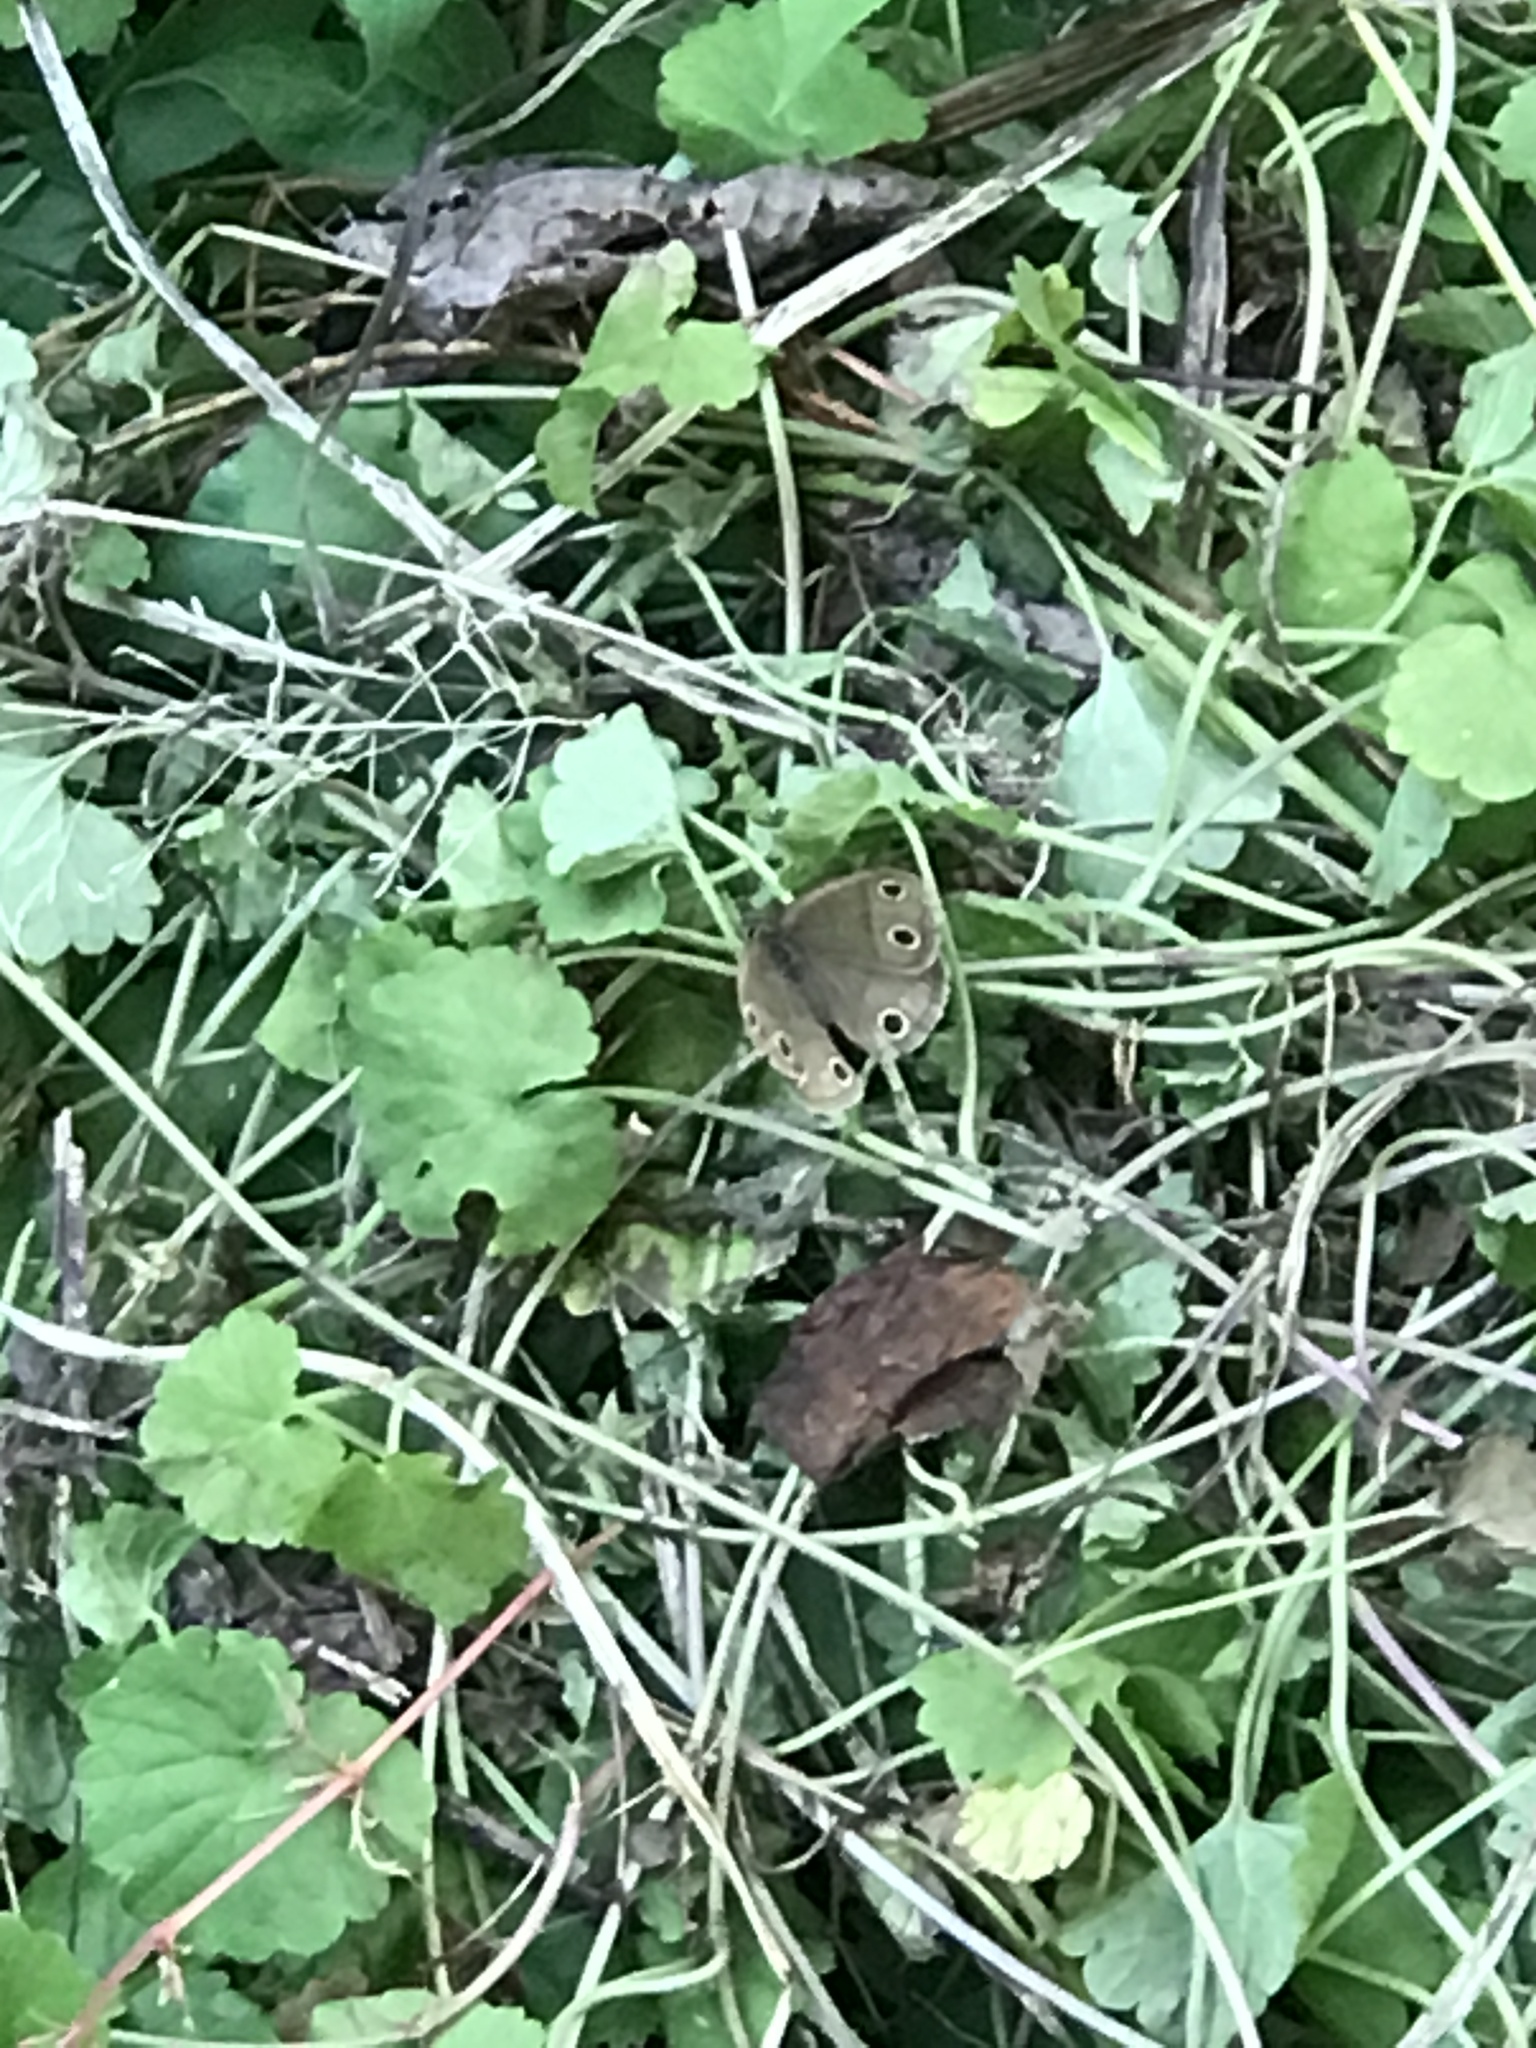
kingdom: Animalia
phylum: Arthropoda
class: Insecta
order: Lepidoptera
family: Nymphalidae
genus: Euptychia
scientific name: Euptychia cymela
